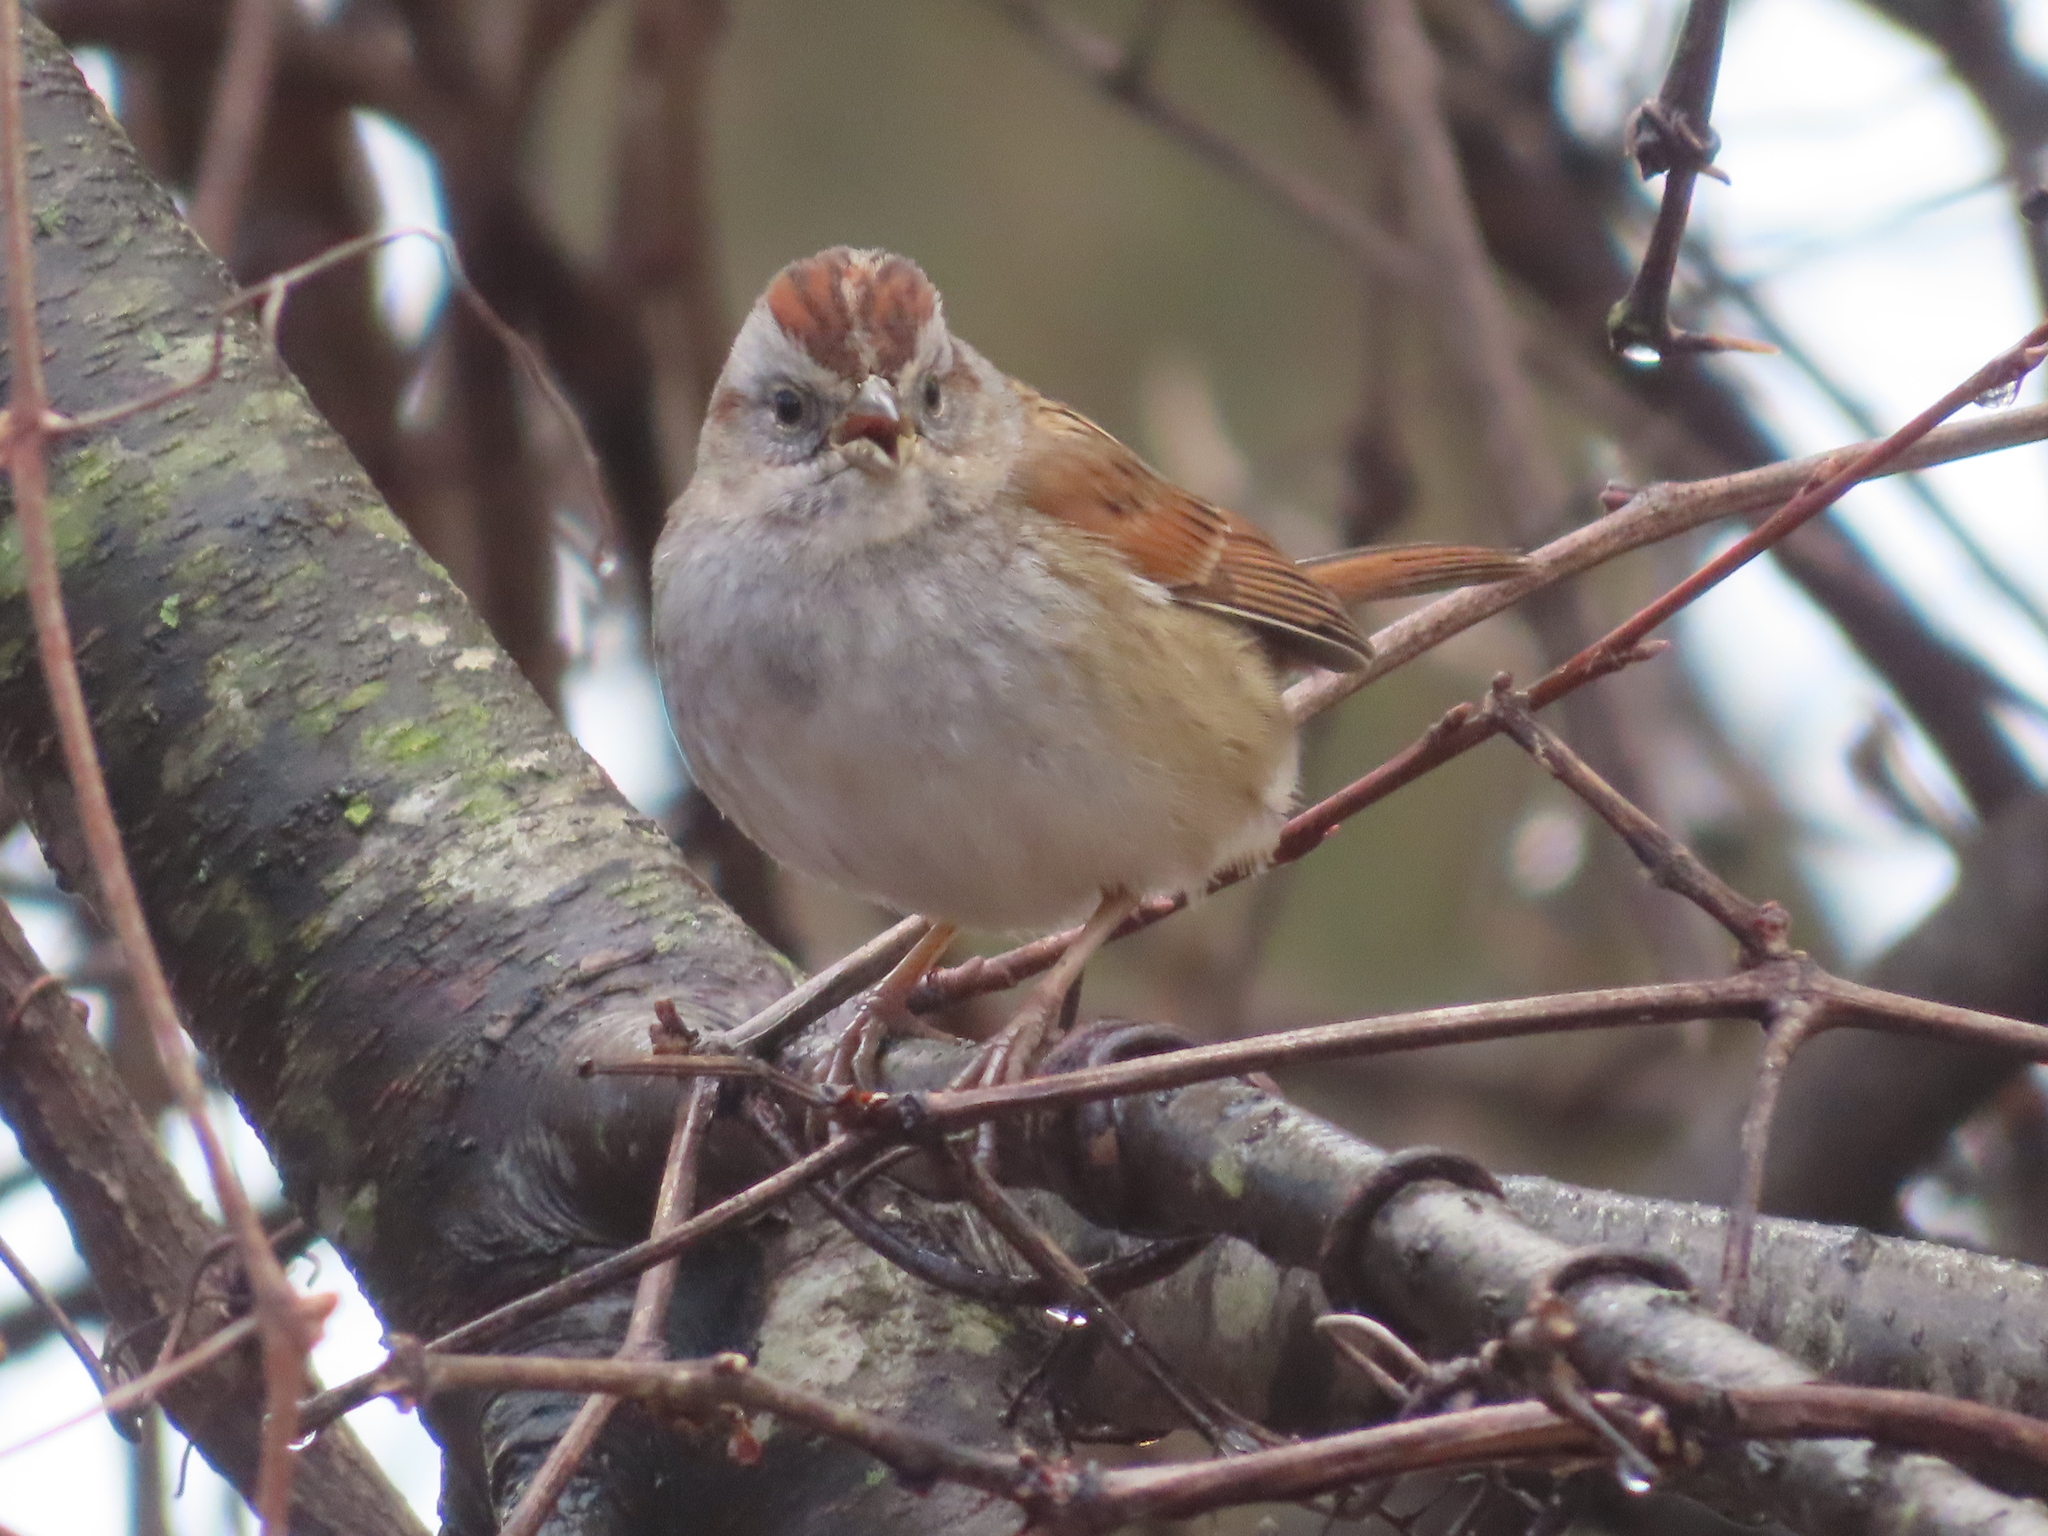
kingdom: Animalia
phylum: Chordata
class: Aves
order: Passeriformes
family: Passerellidae
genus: Melospiza
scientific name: Melospiza georgiana
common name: Swamp sparrow
